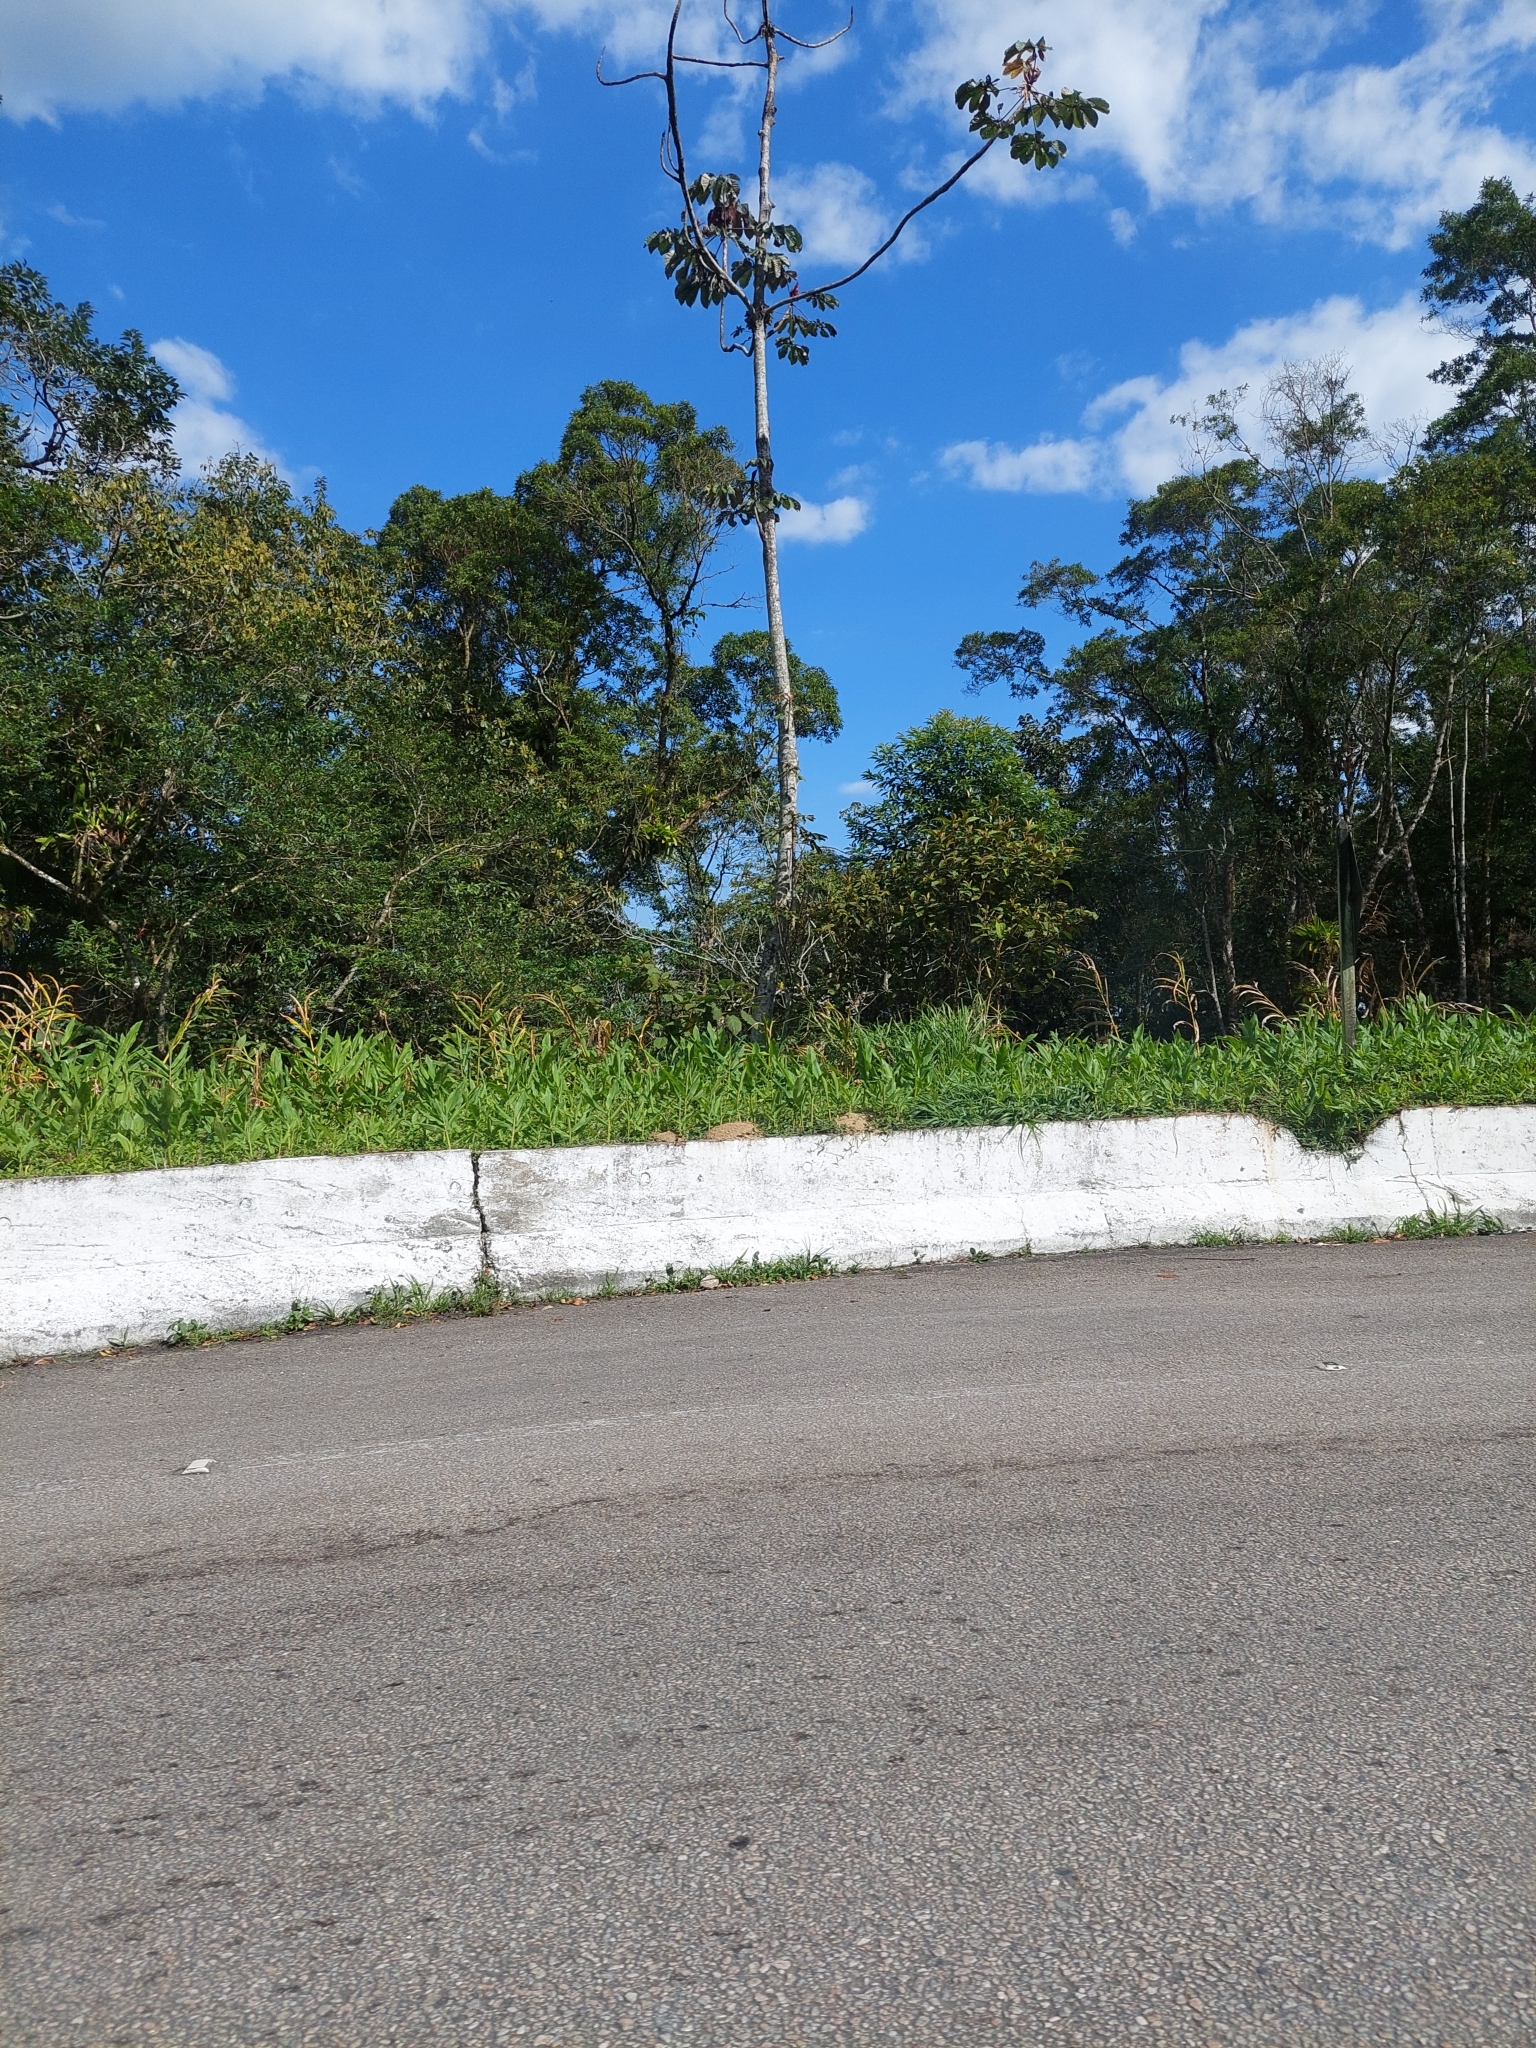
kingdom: Plantae
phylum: Tracheophyta
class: Liliopsida
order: Zingiberales
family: Zingiberaceae
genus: Hedychium
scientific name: Hedychium coronarium
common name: White garland-lily
